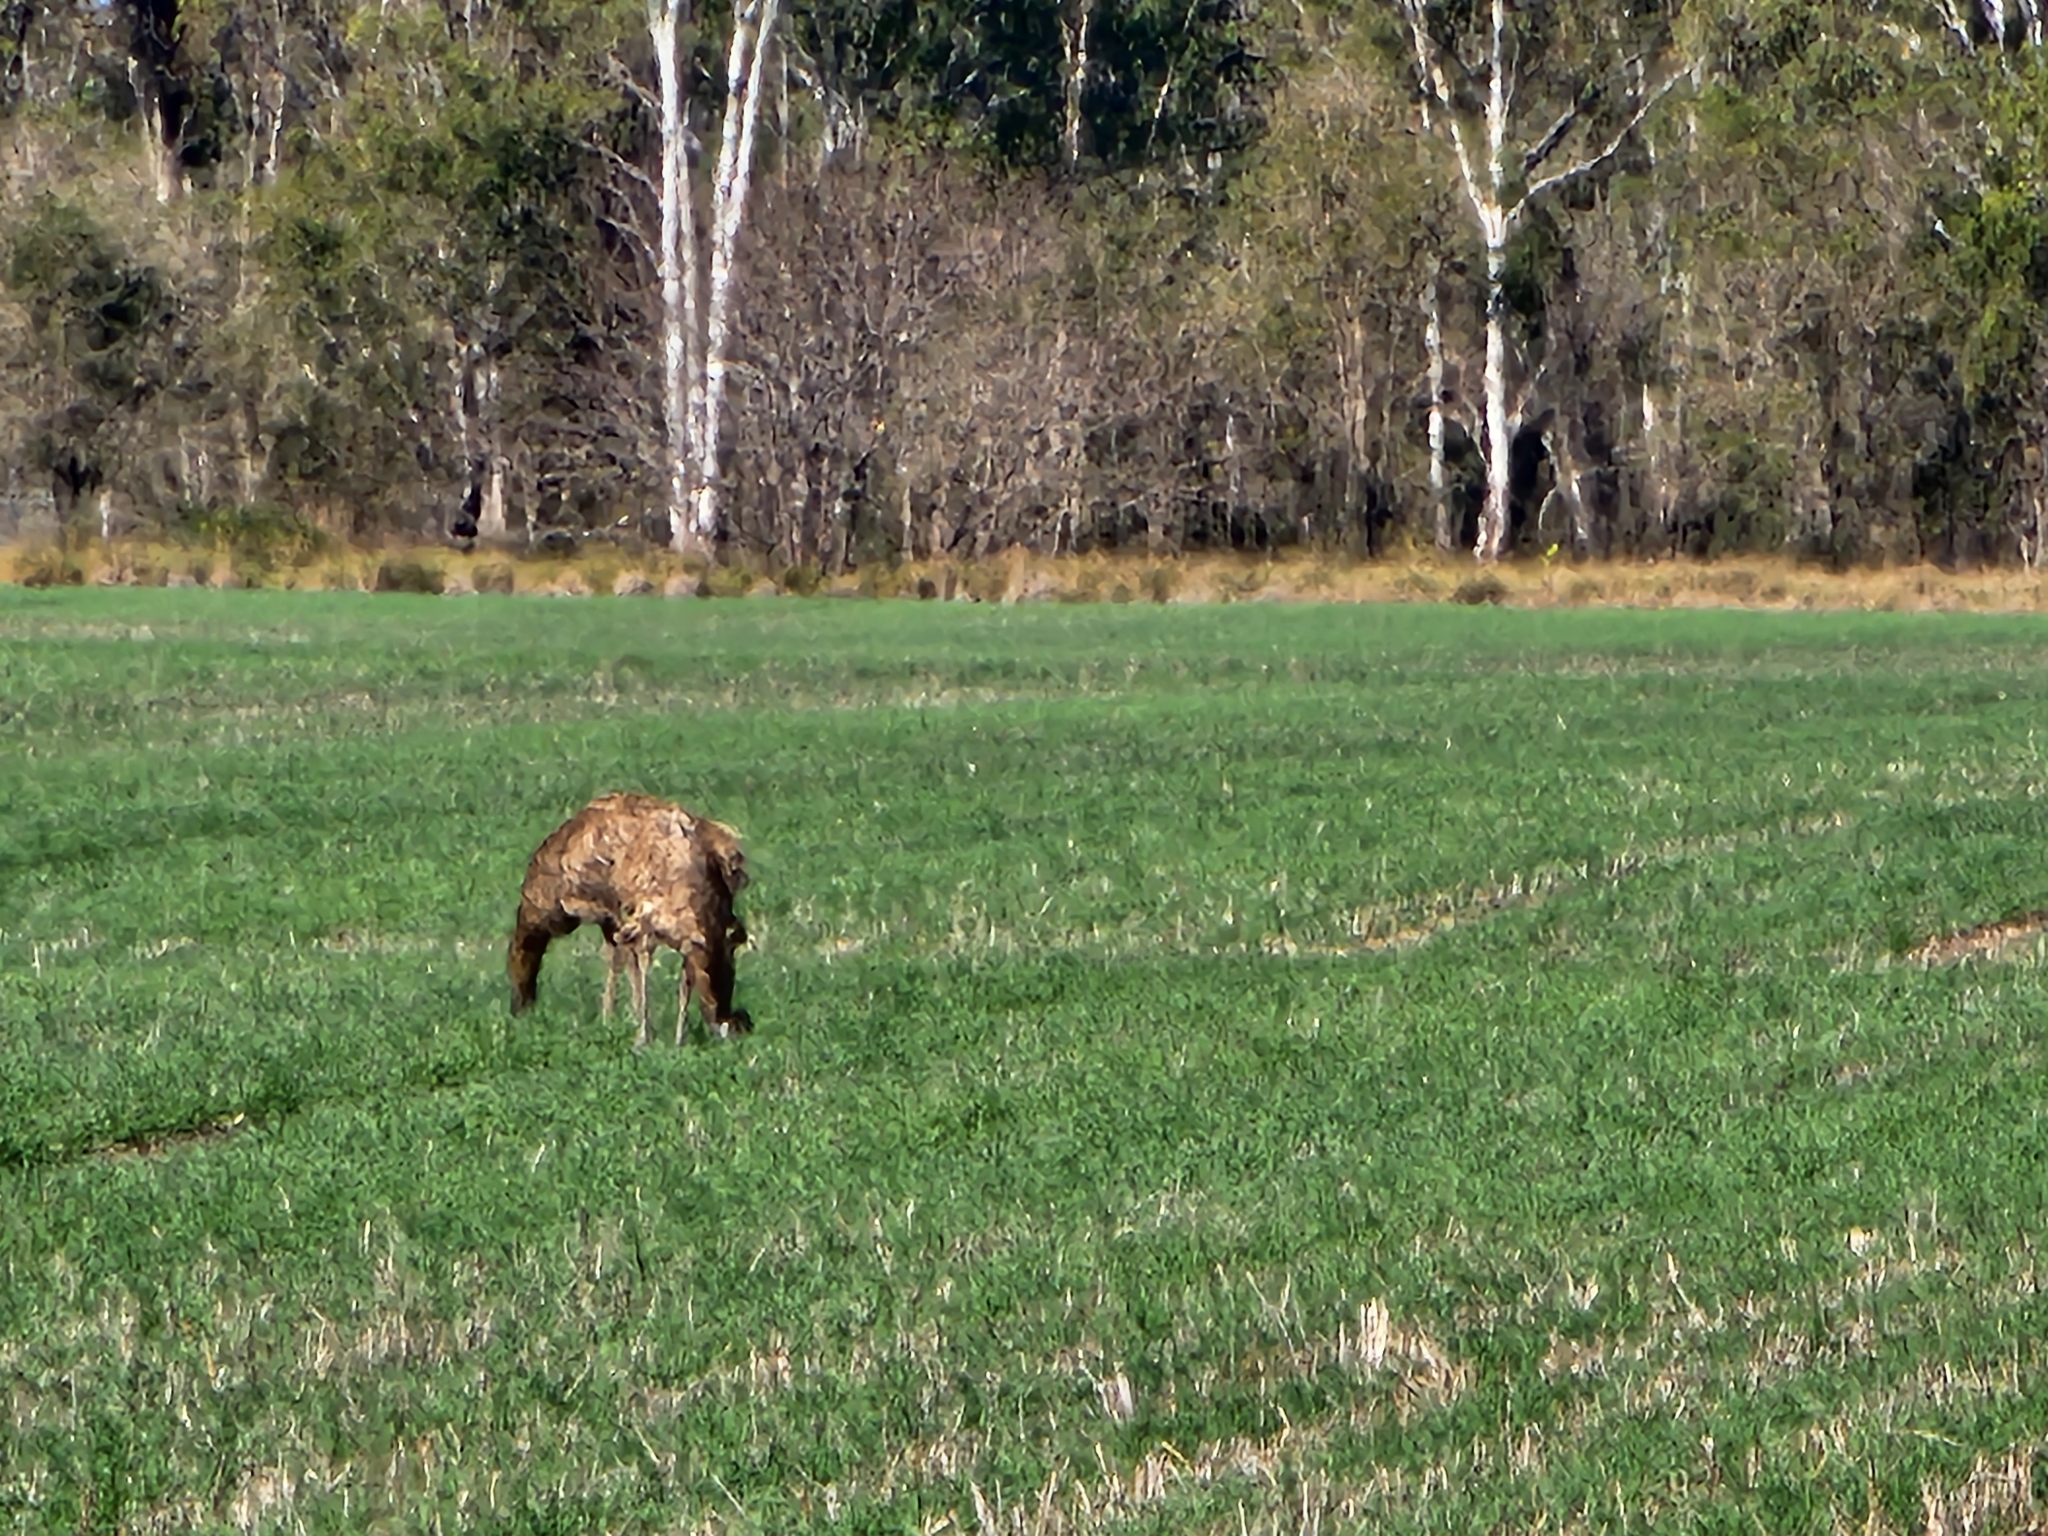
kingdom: Animalia
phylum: Chordata
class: Aves
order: Casuariiformes
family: Dromaiidae
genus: Dromaius
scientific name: Dromaius novaehollandiae
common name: Emu
